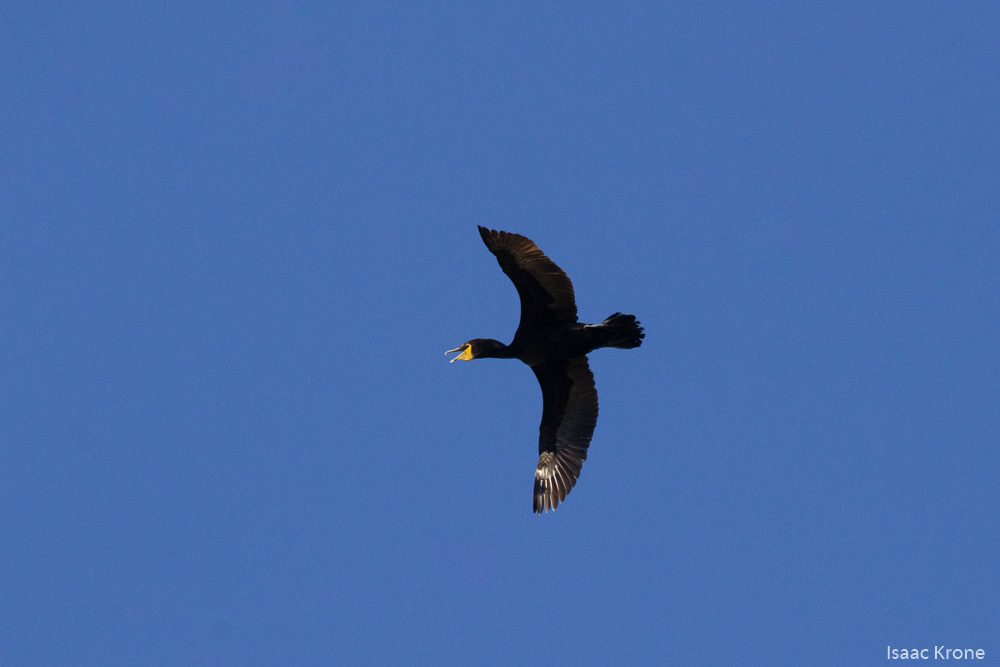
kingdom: Animalia
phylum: Chordata
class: Aves
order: Suliformes
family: Phalacrocoracidae
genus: Phalacrocorax
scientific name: Phalacrocorax auritus
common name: Double-crested cormorant
